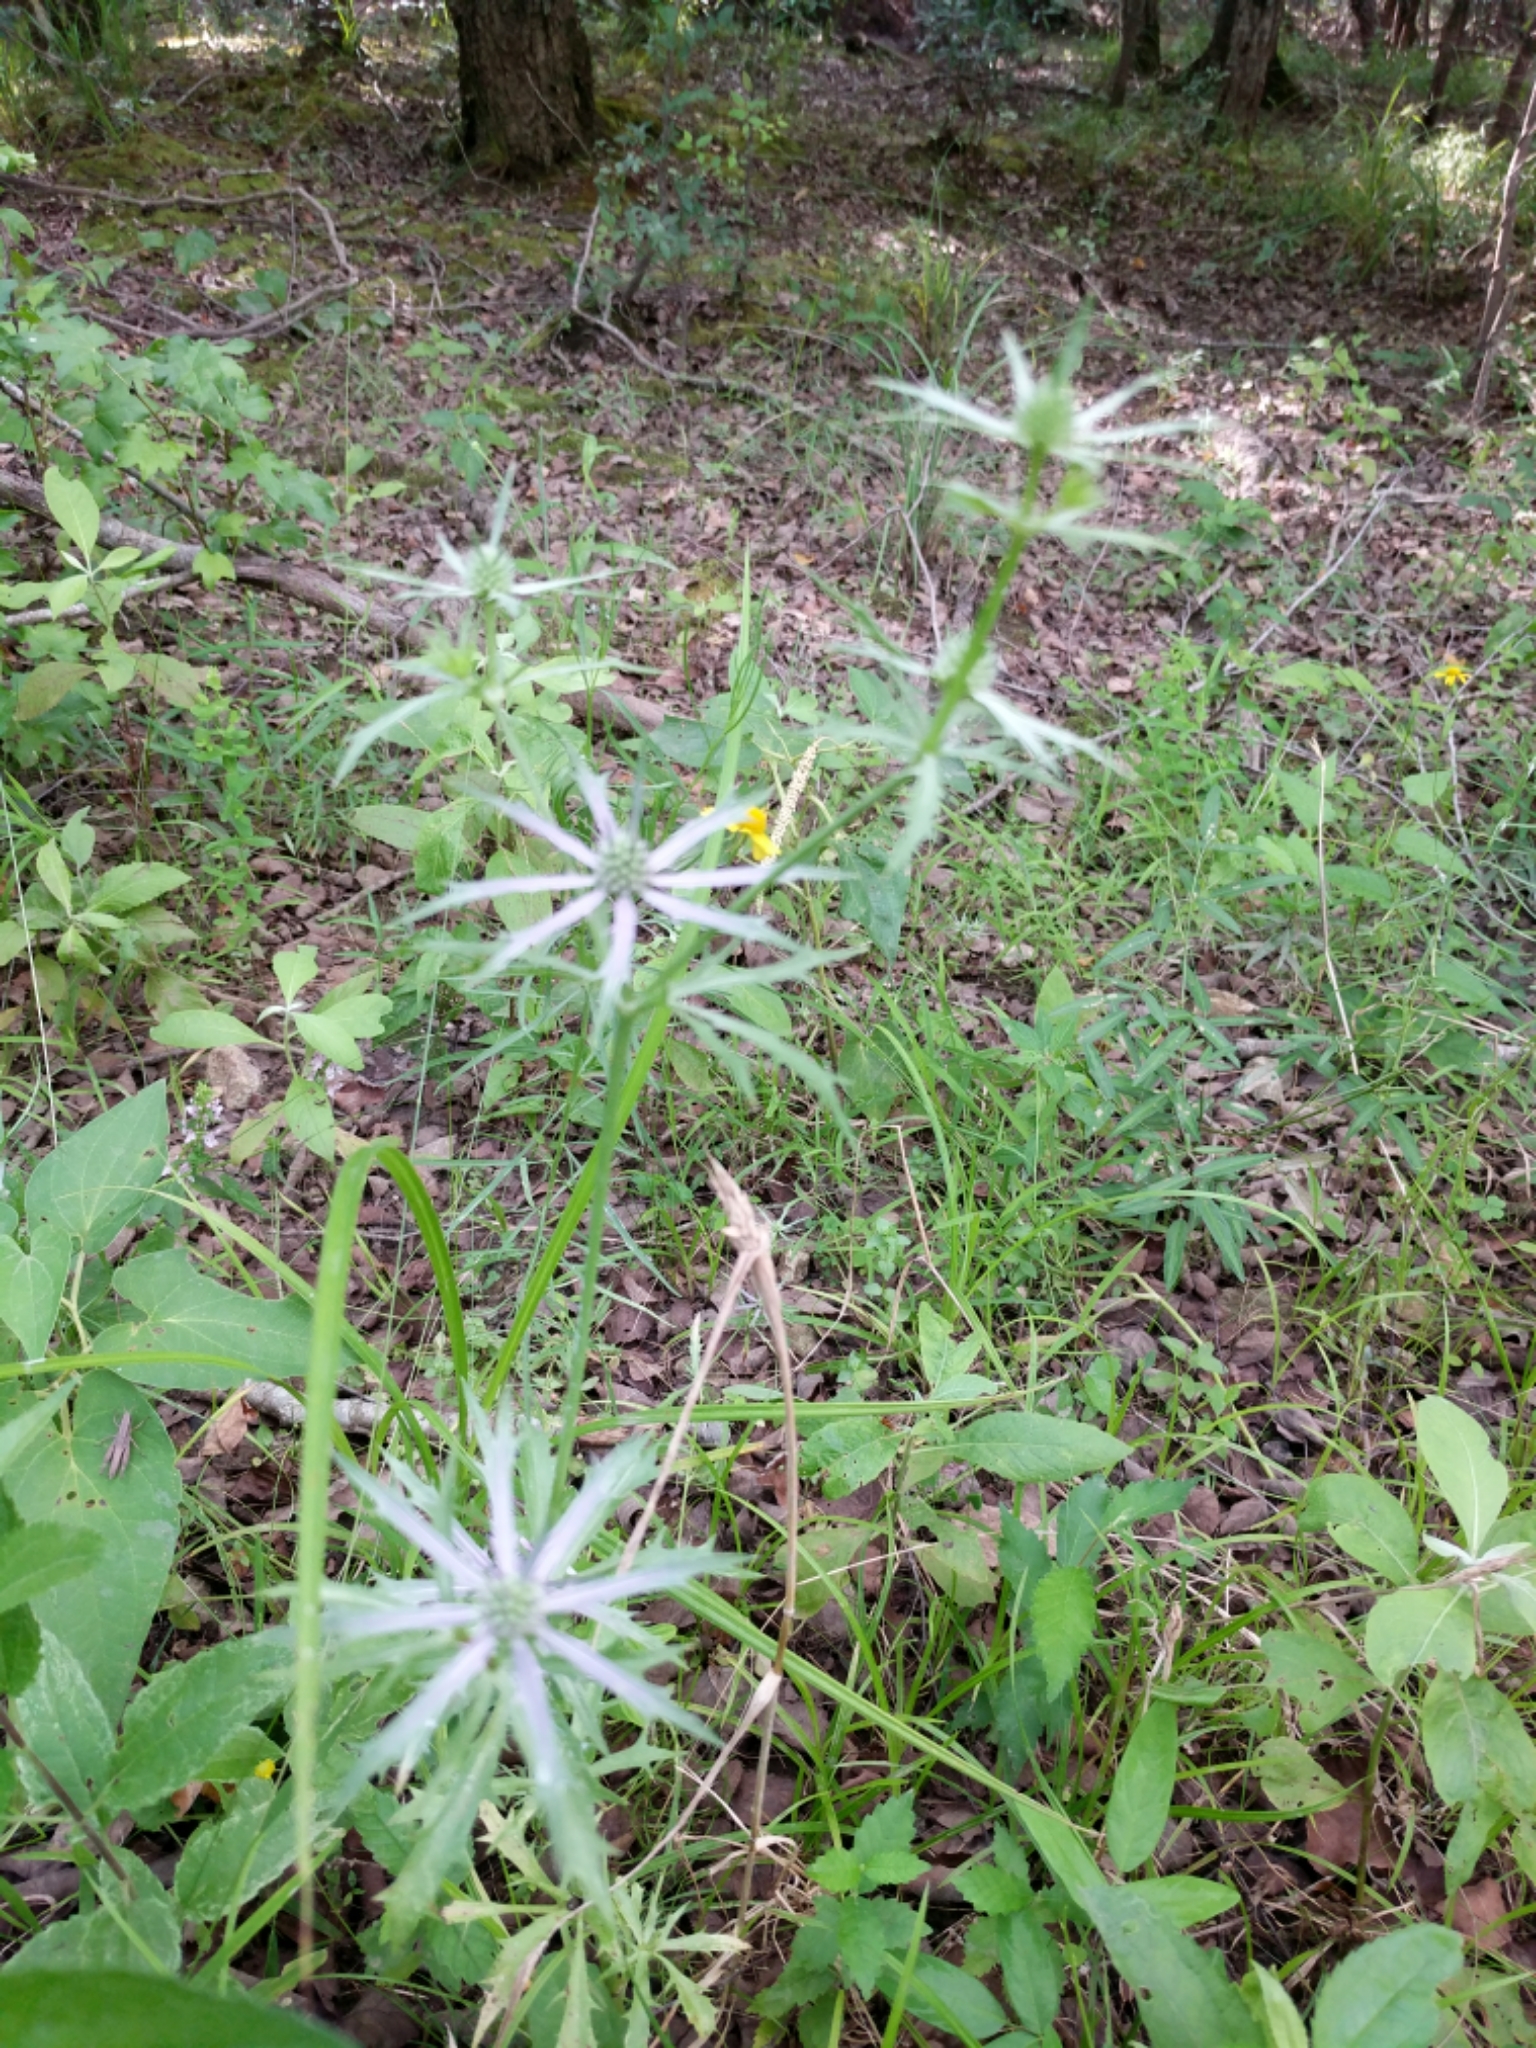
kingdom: Plantae
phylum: Tracheophyta
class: Magnoliopsida
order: Apiales
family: Apiaceae
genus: Eryngium
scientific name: Eryngium hookeri
